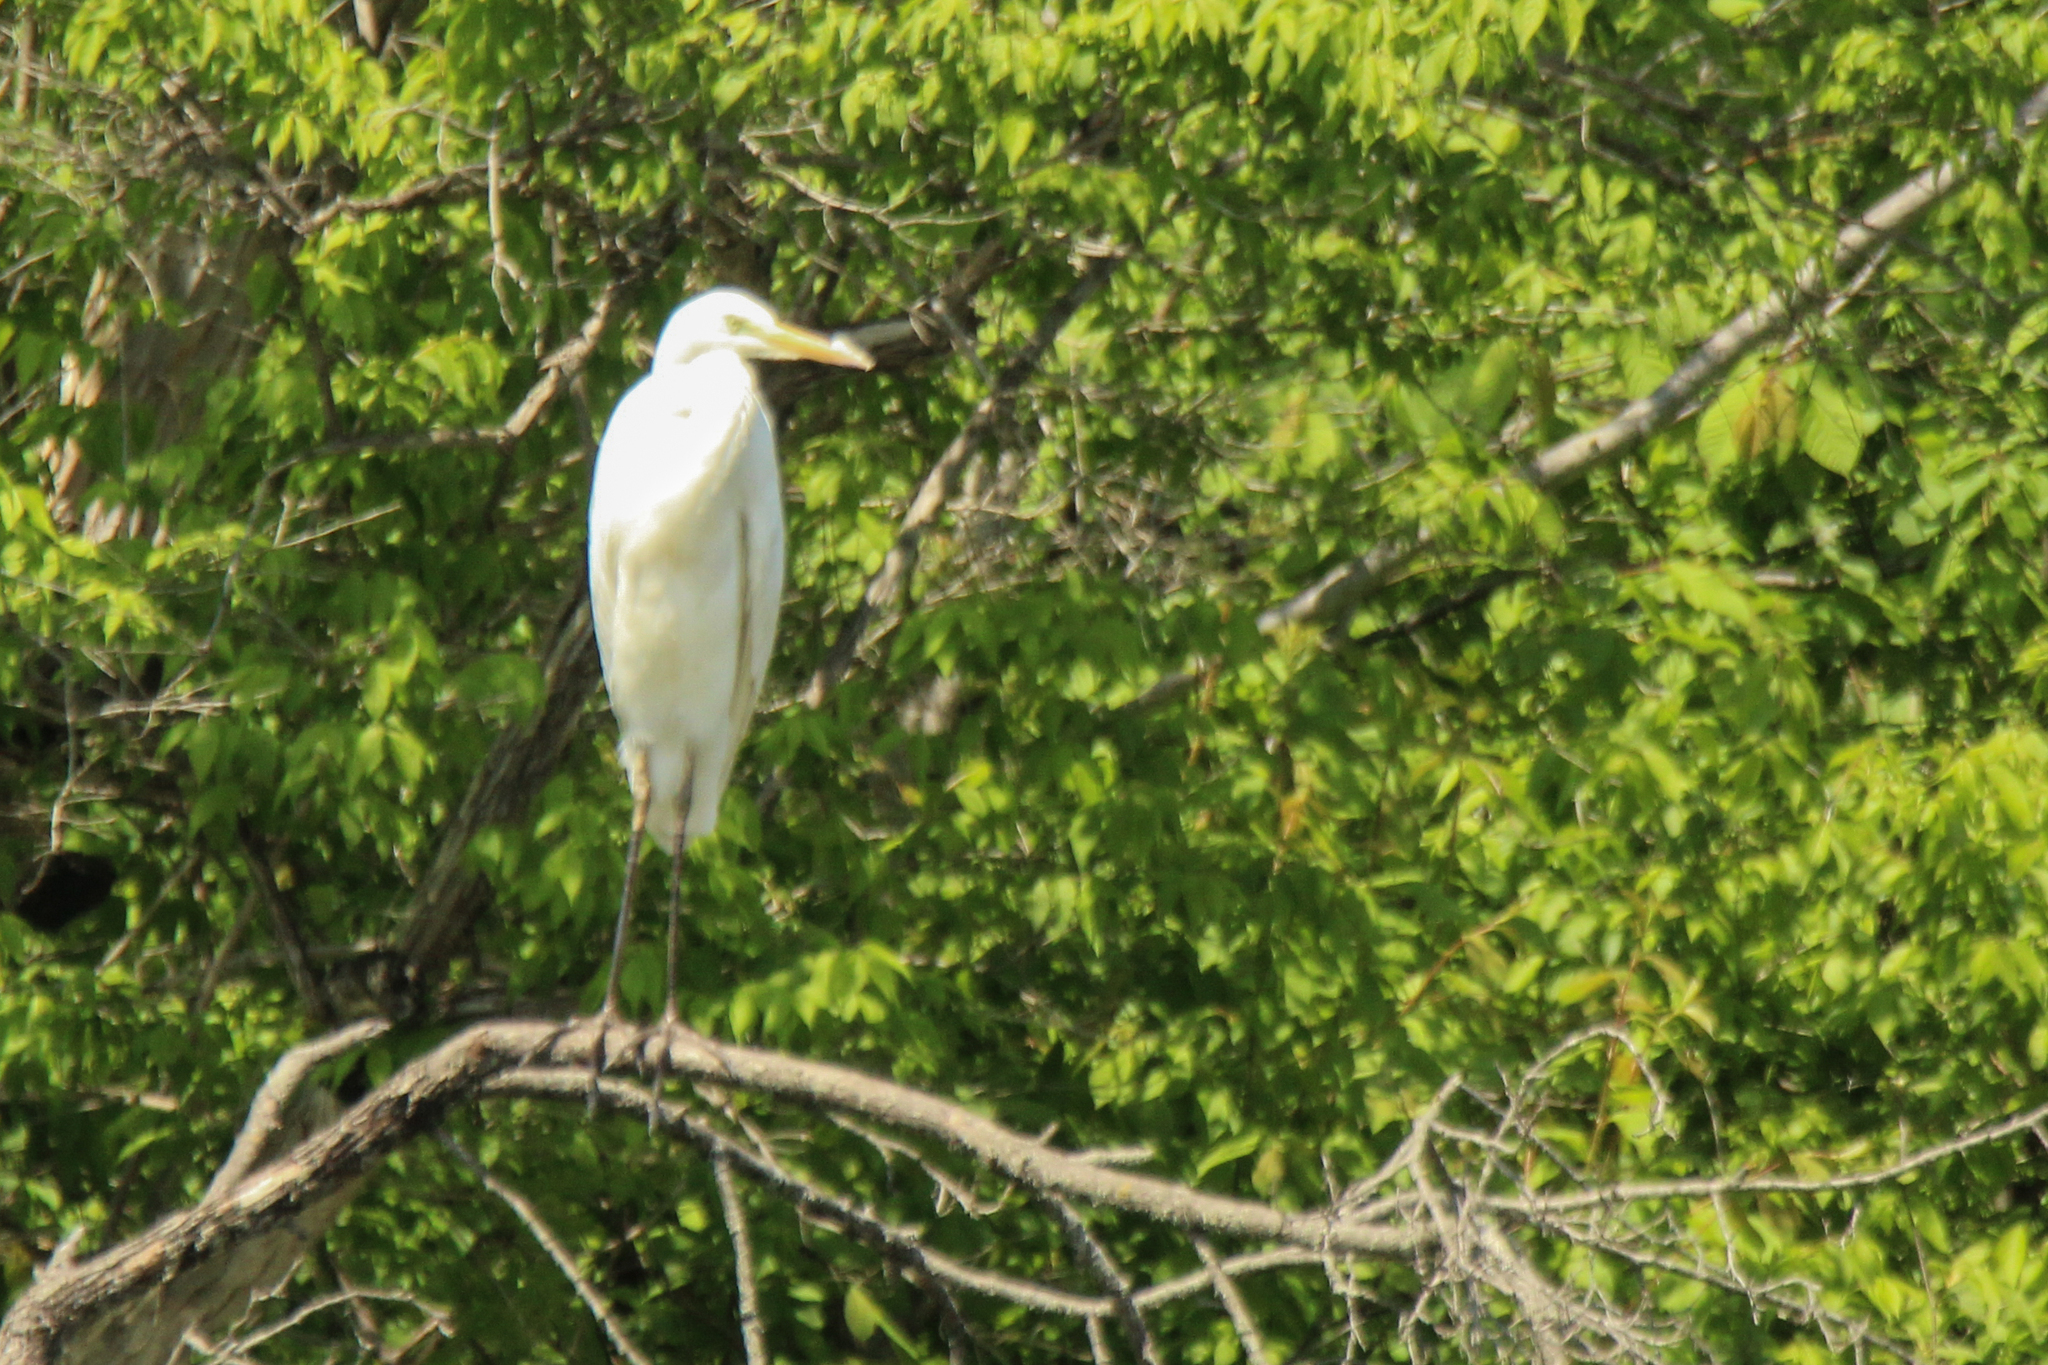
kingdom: Animalia
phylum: Chordata
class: Aves
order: Pelecaniformes
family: Ardeidae
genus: Ardea
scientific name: Ardea alba
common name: Great egret
